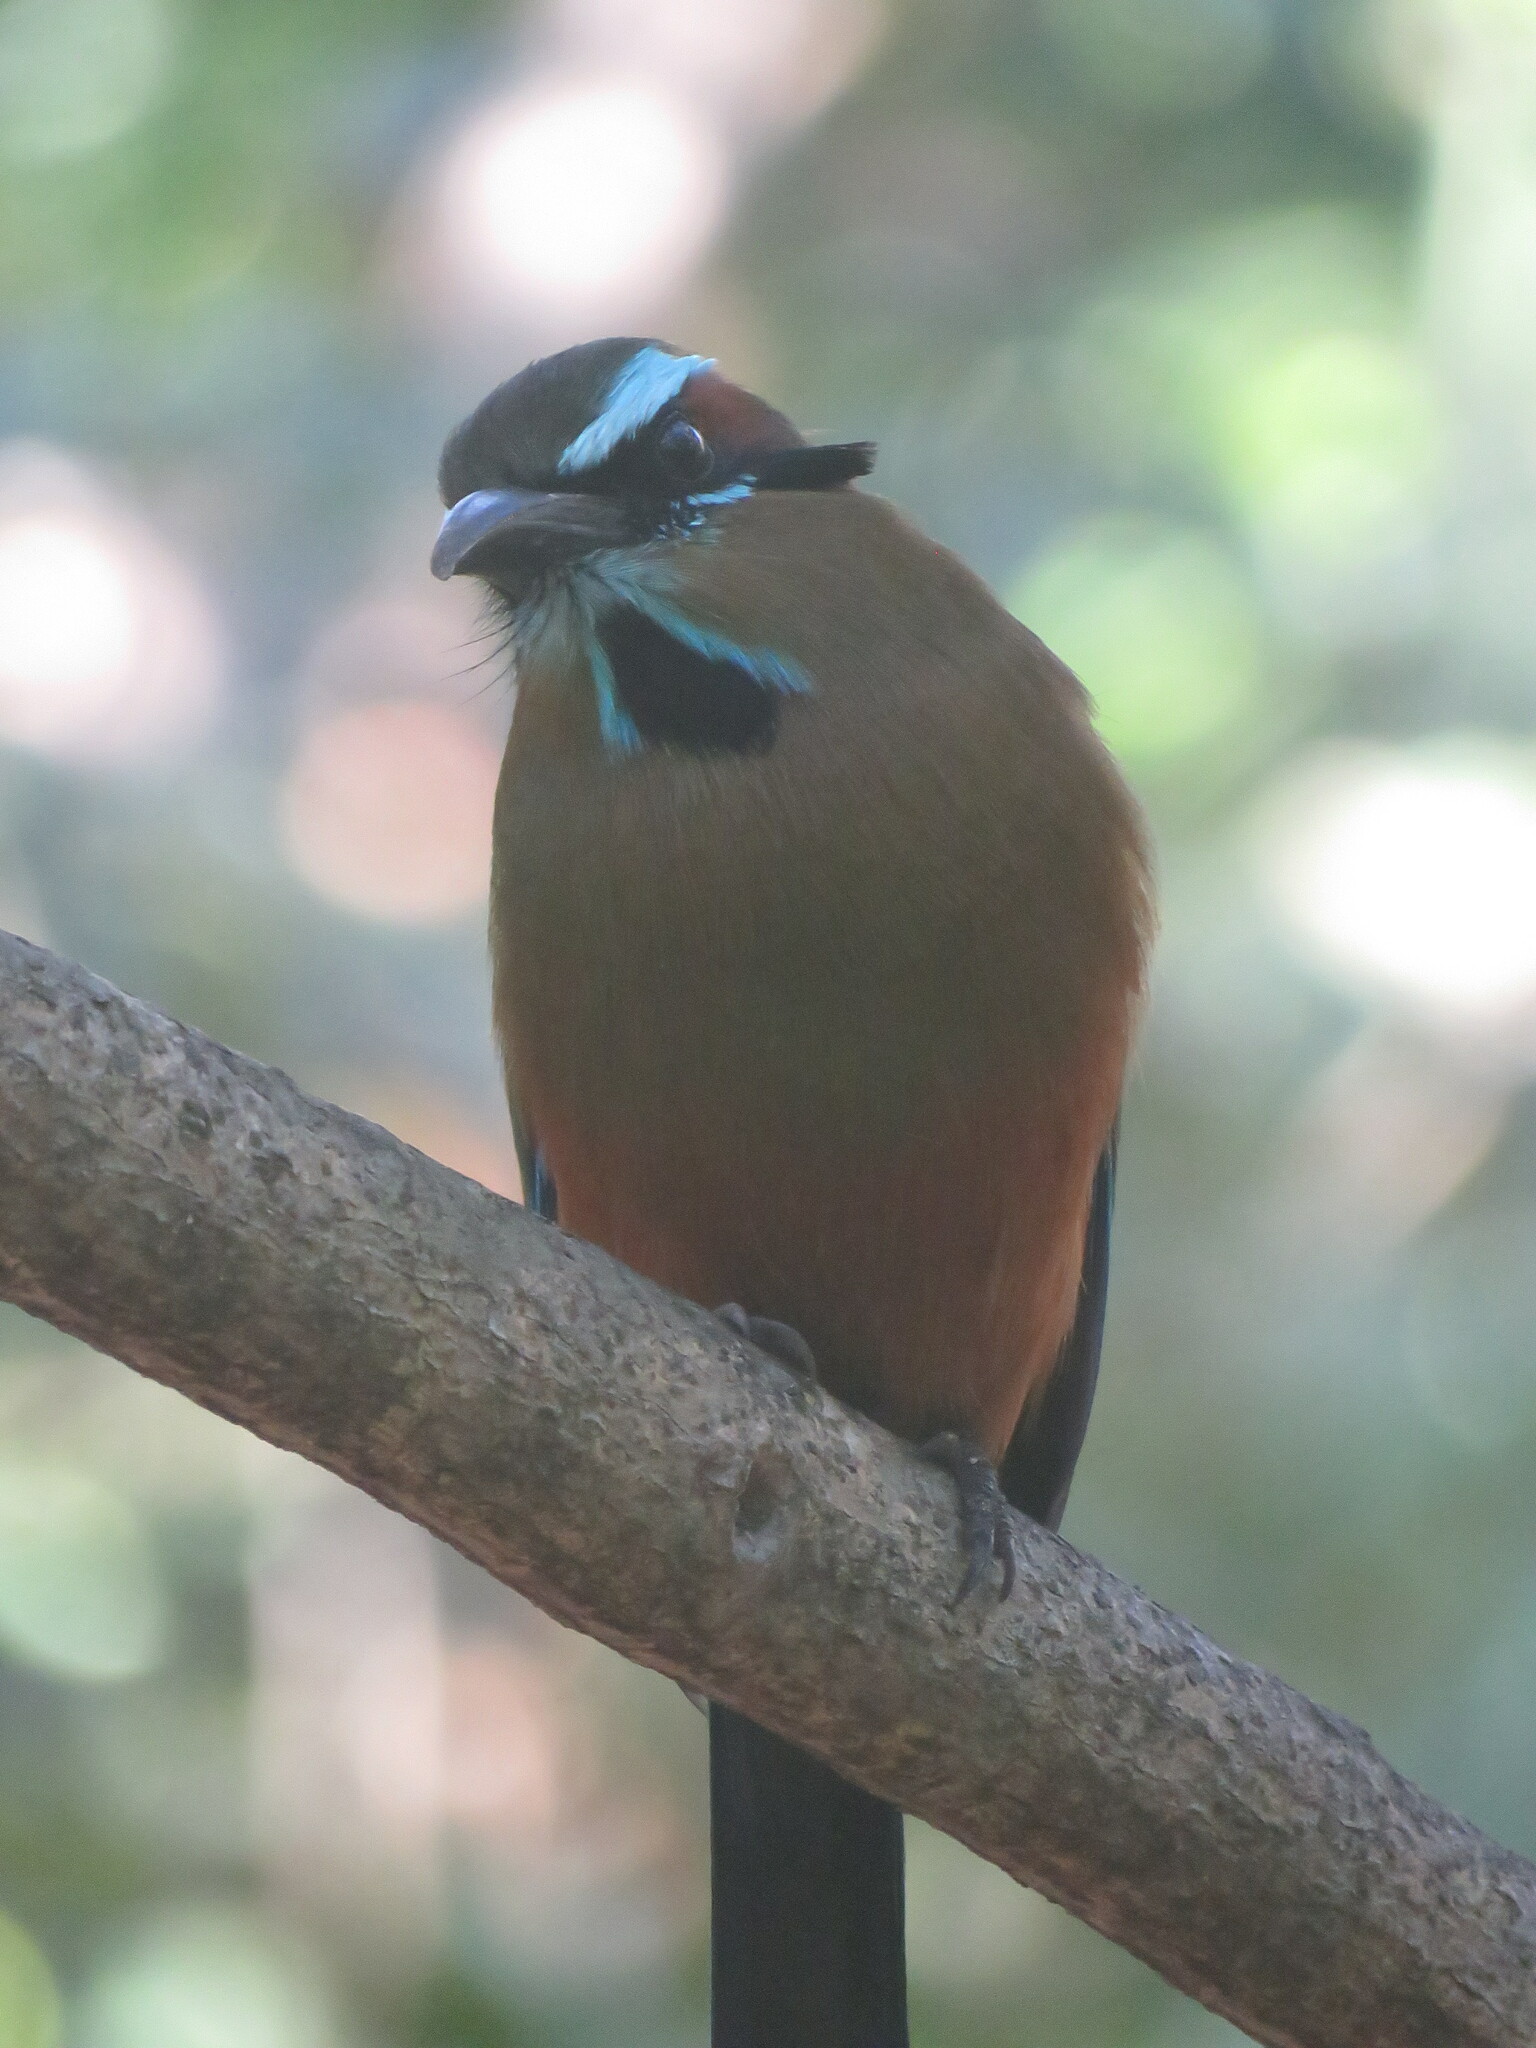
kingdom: Animalia
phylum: Chordata
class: Aves
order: Coraciiformes
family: Momotidae
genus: Eumomota
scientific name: Eumomota superciliosa
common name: Turquoise-browed motmot
